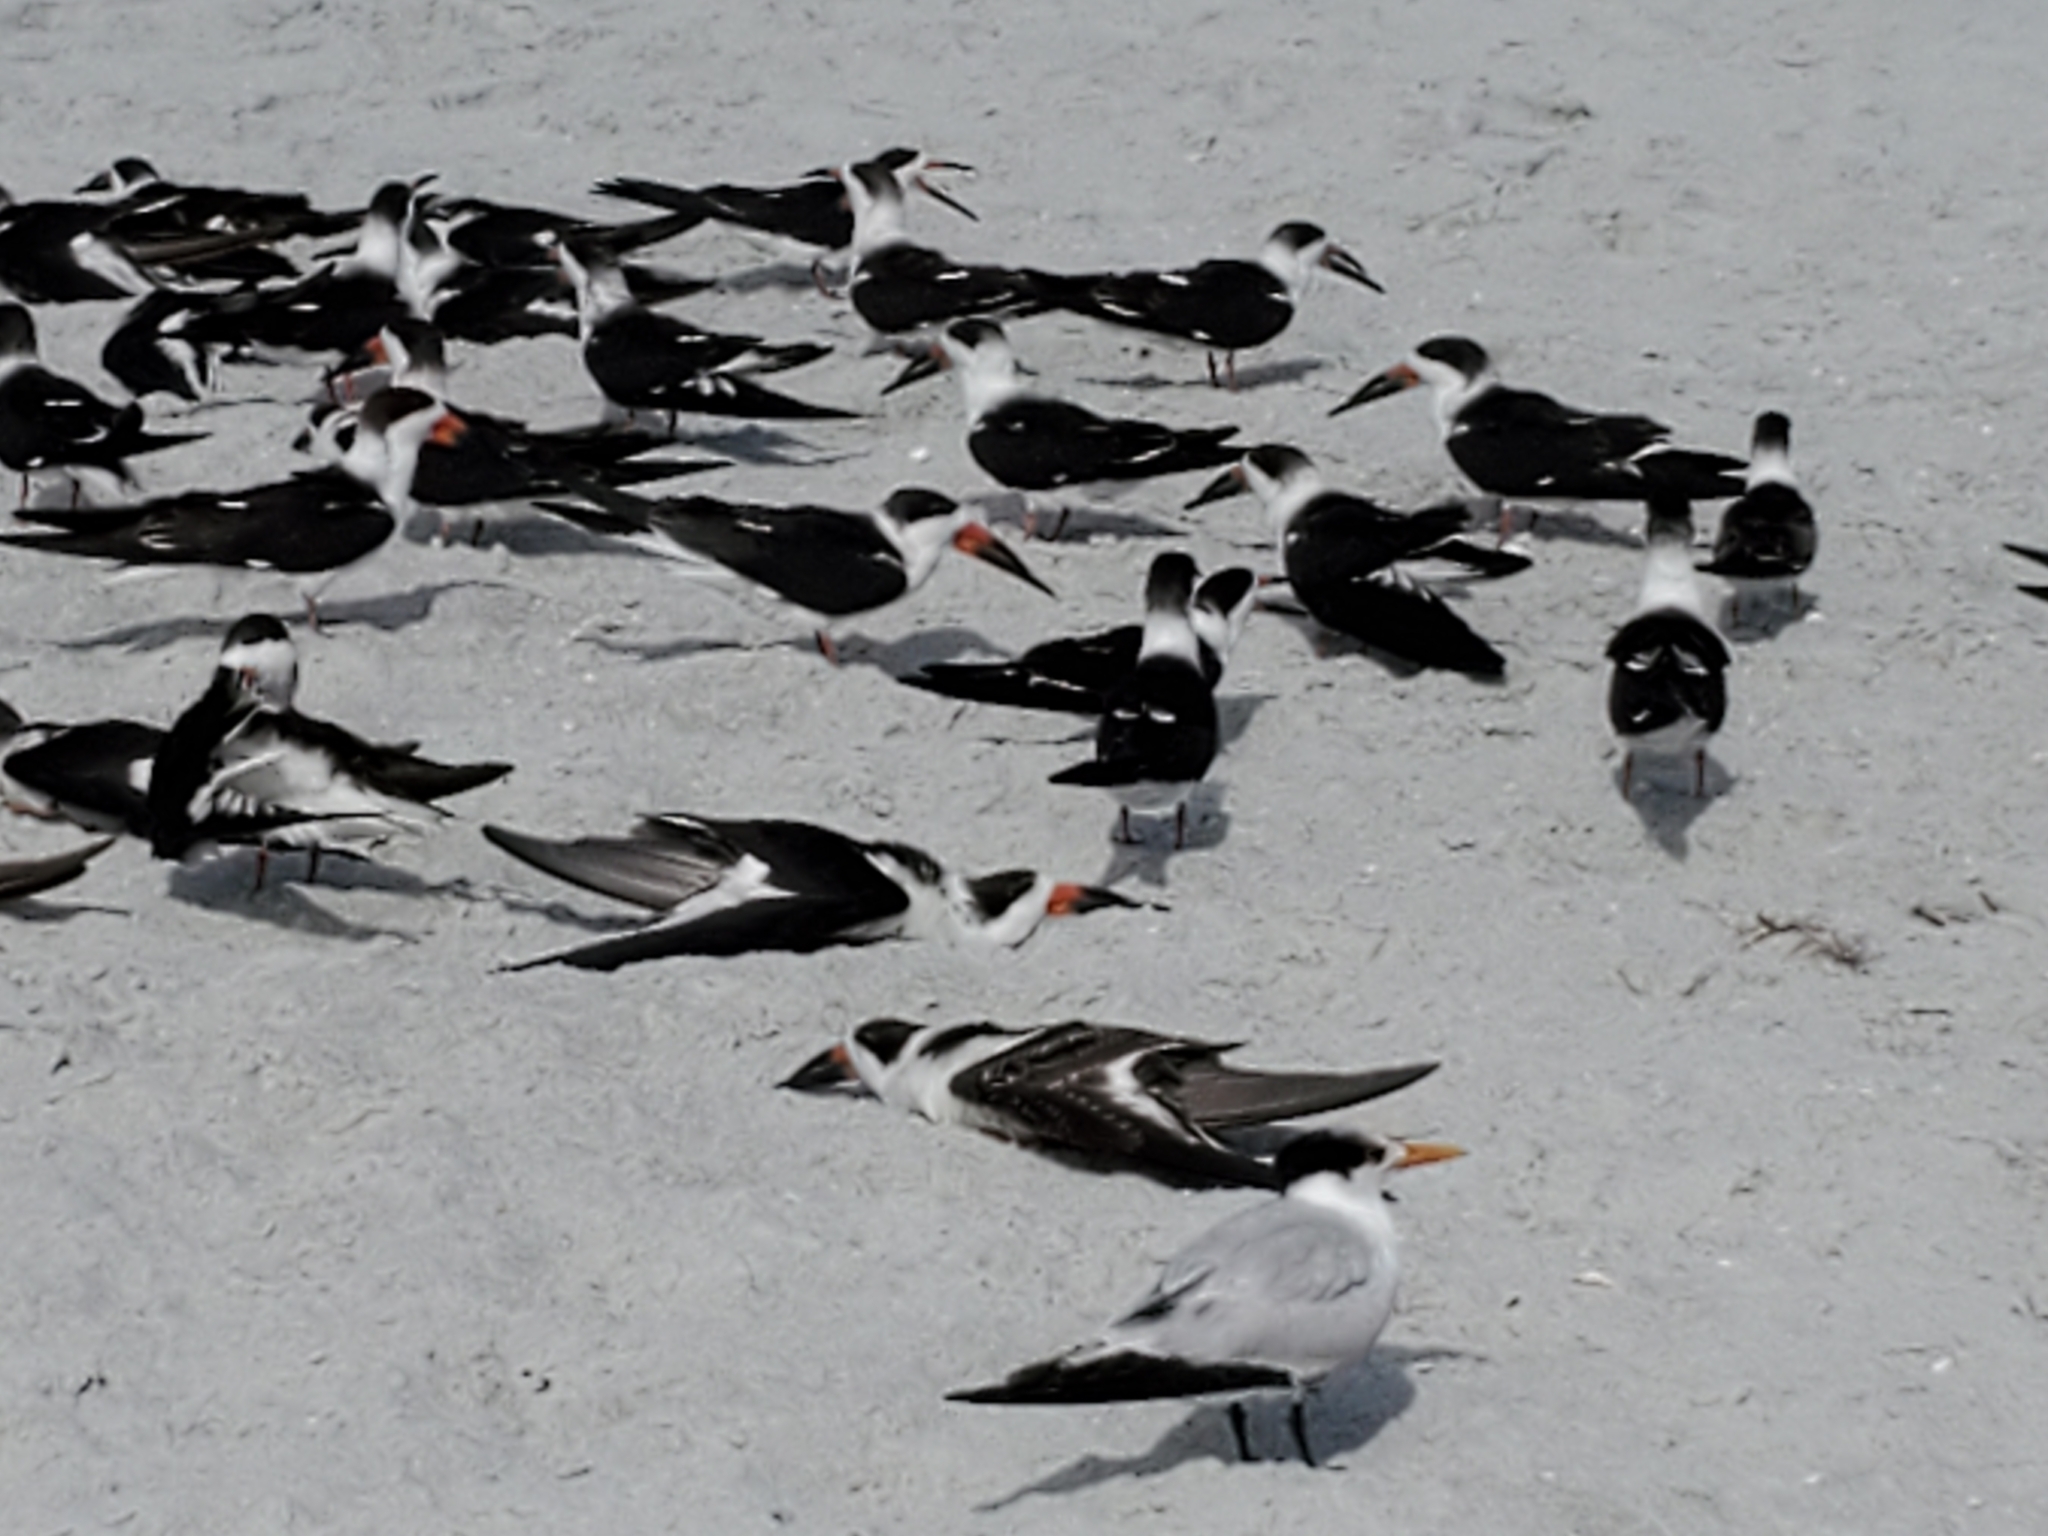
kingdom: Animalia
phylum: Chordata
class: Aves
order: Charadriiformes
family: Laridae
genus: Rynchops
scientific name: Rynchops niger
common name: Black skimmer
